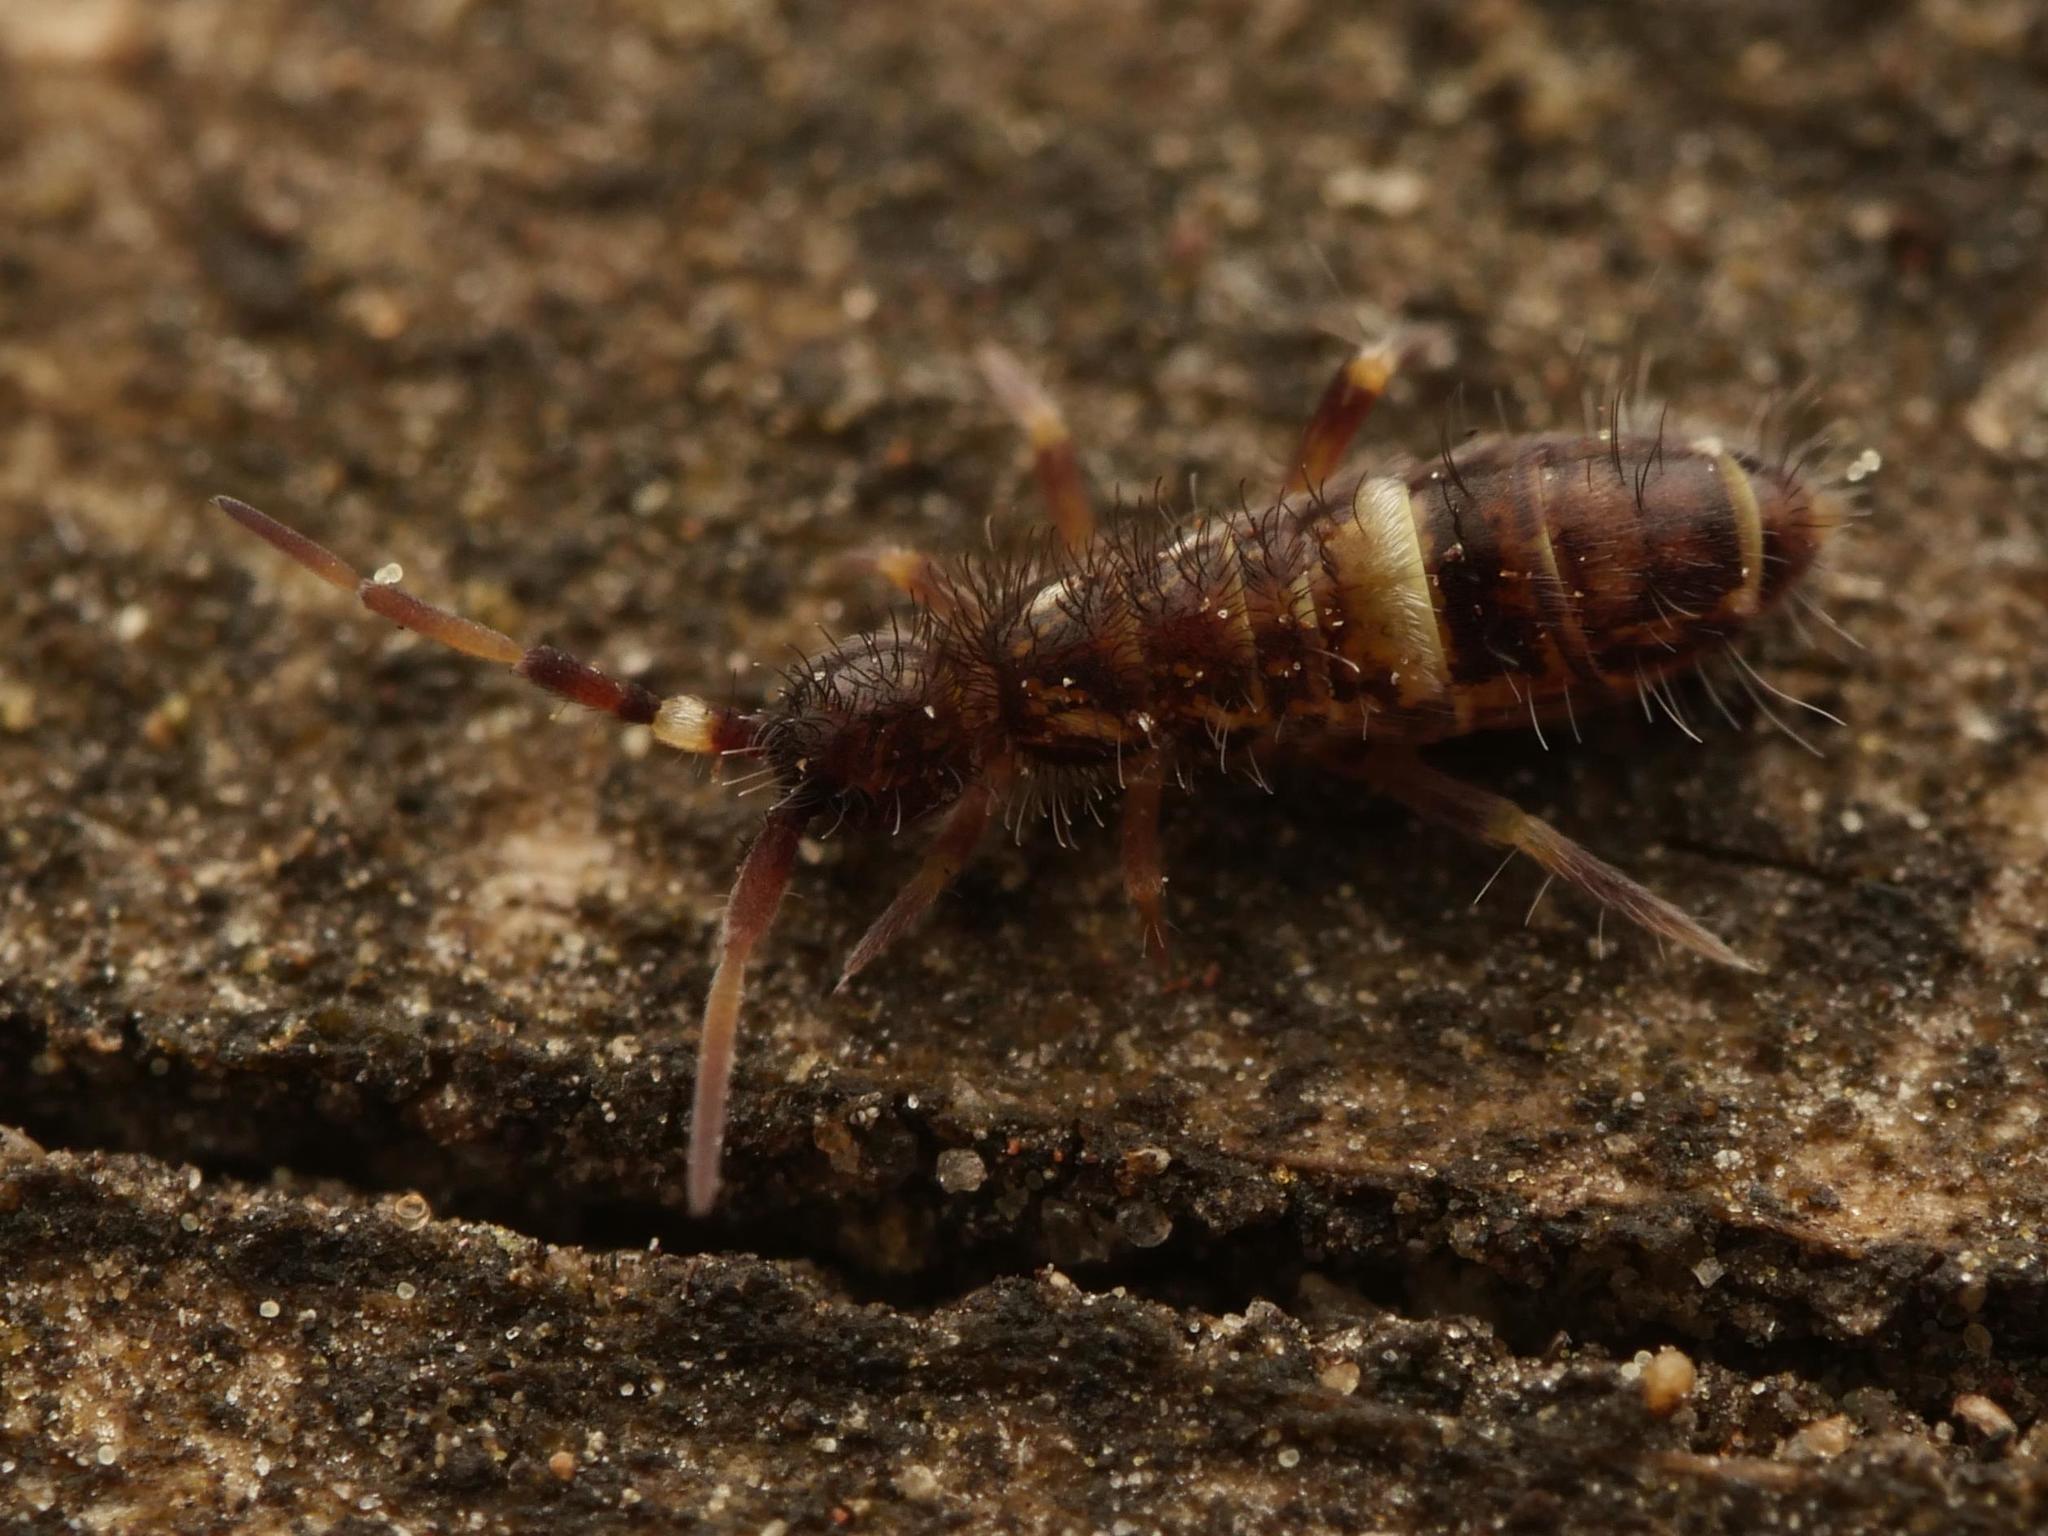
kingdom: Animalia
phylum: Arthropoda
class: Collembola
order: Entomobryomorpha
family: Orchesellidae
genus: Orchesella
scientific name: Orchesella cincta
